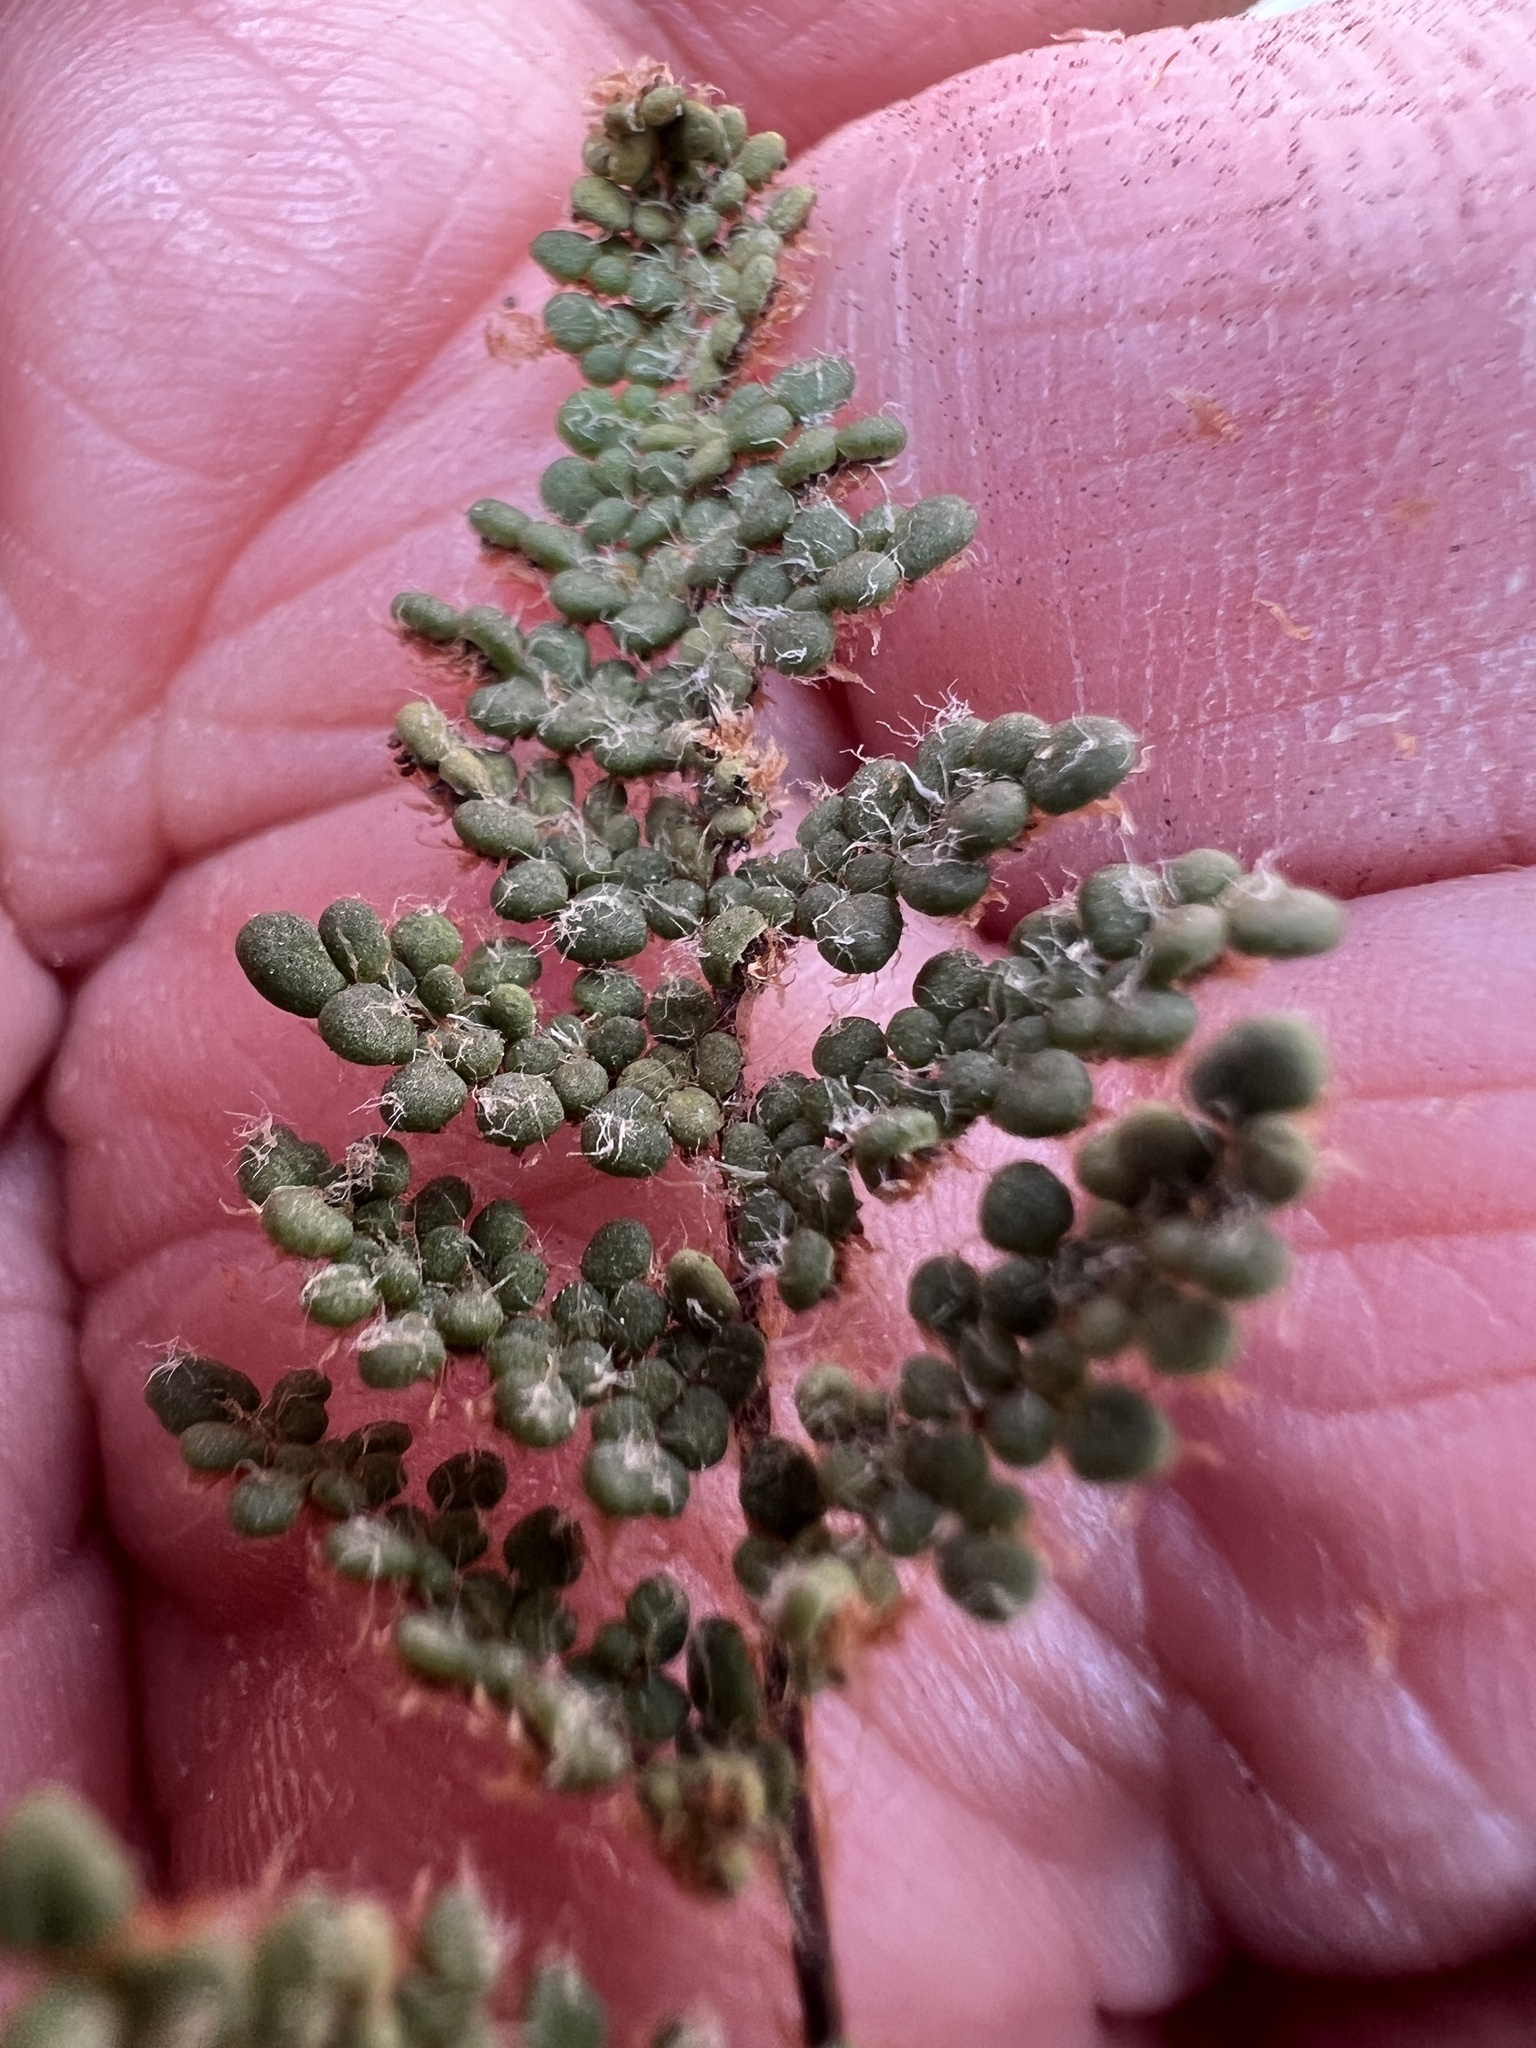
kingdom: Plantae
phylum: Tracheophyta
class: Polypodiopsida
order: Polypodiales
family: Pteridaceae
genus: Myriopteris
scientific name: Myriopteris intertexta
